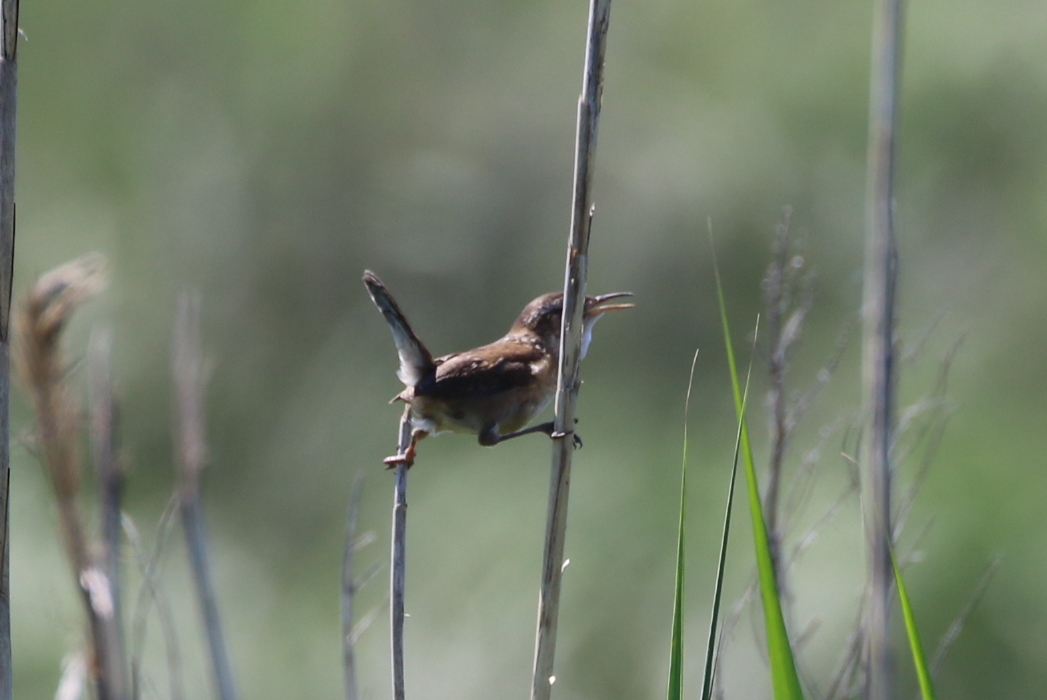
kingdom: Animalia
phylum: Chordata
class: Aves
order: Passeriformes
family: Troglodytidae
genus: Cistothorus
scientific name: Cistothorus palustris
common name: Marsh wren
